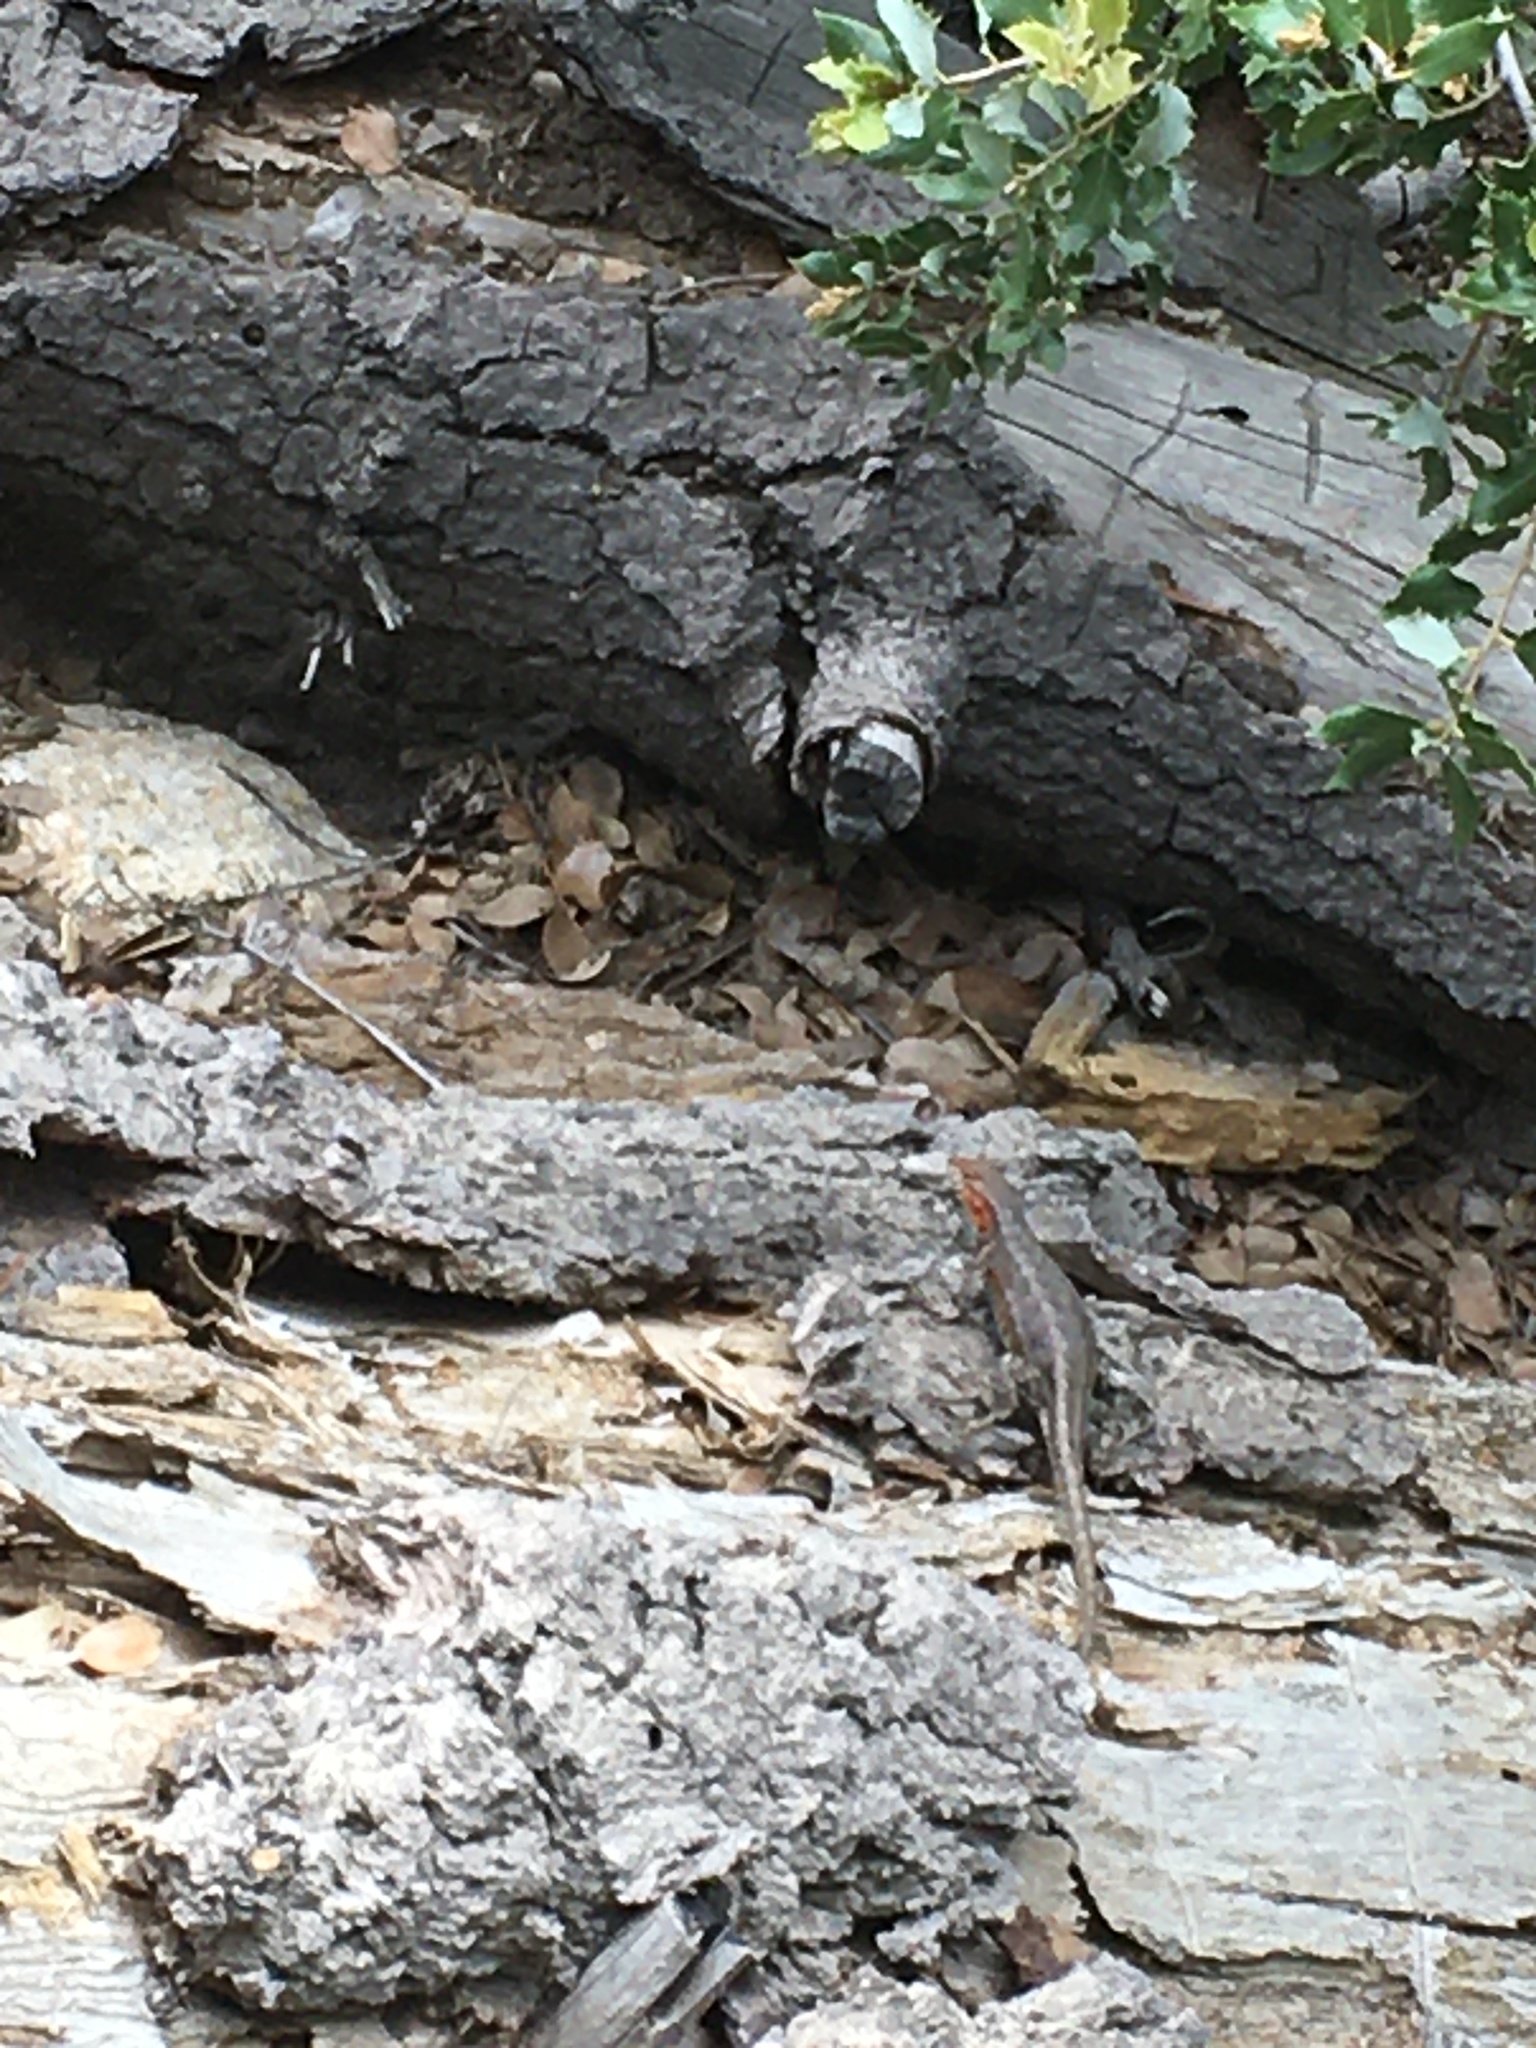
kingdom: Animalia
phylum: Chordata
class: Squamata
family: Phrynosomatidae
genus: Sceloporus
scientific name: Sceloporus graciosus
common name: Sagebrush lizard
